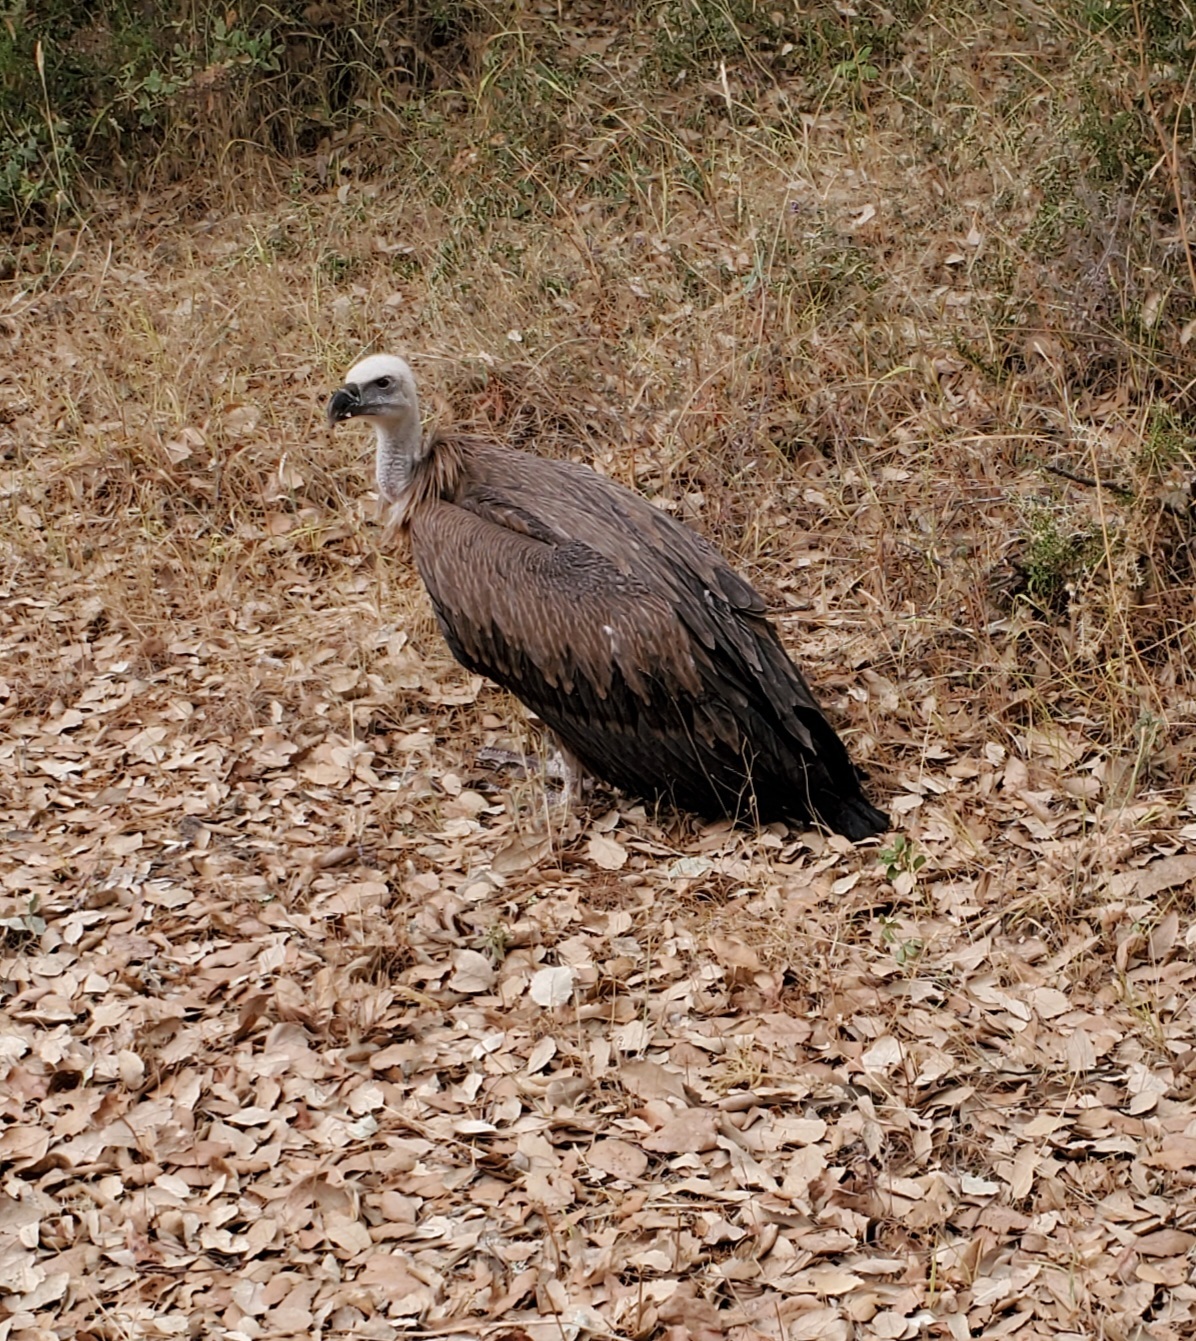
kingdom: Animalia
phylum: Chordata
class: Aves
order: Accipitriformes
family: Accipitridae
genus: Gyps
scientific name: Gyps fulvus
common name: Griffon vulture
